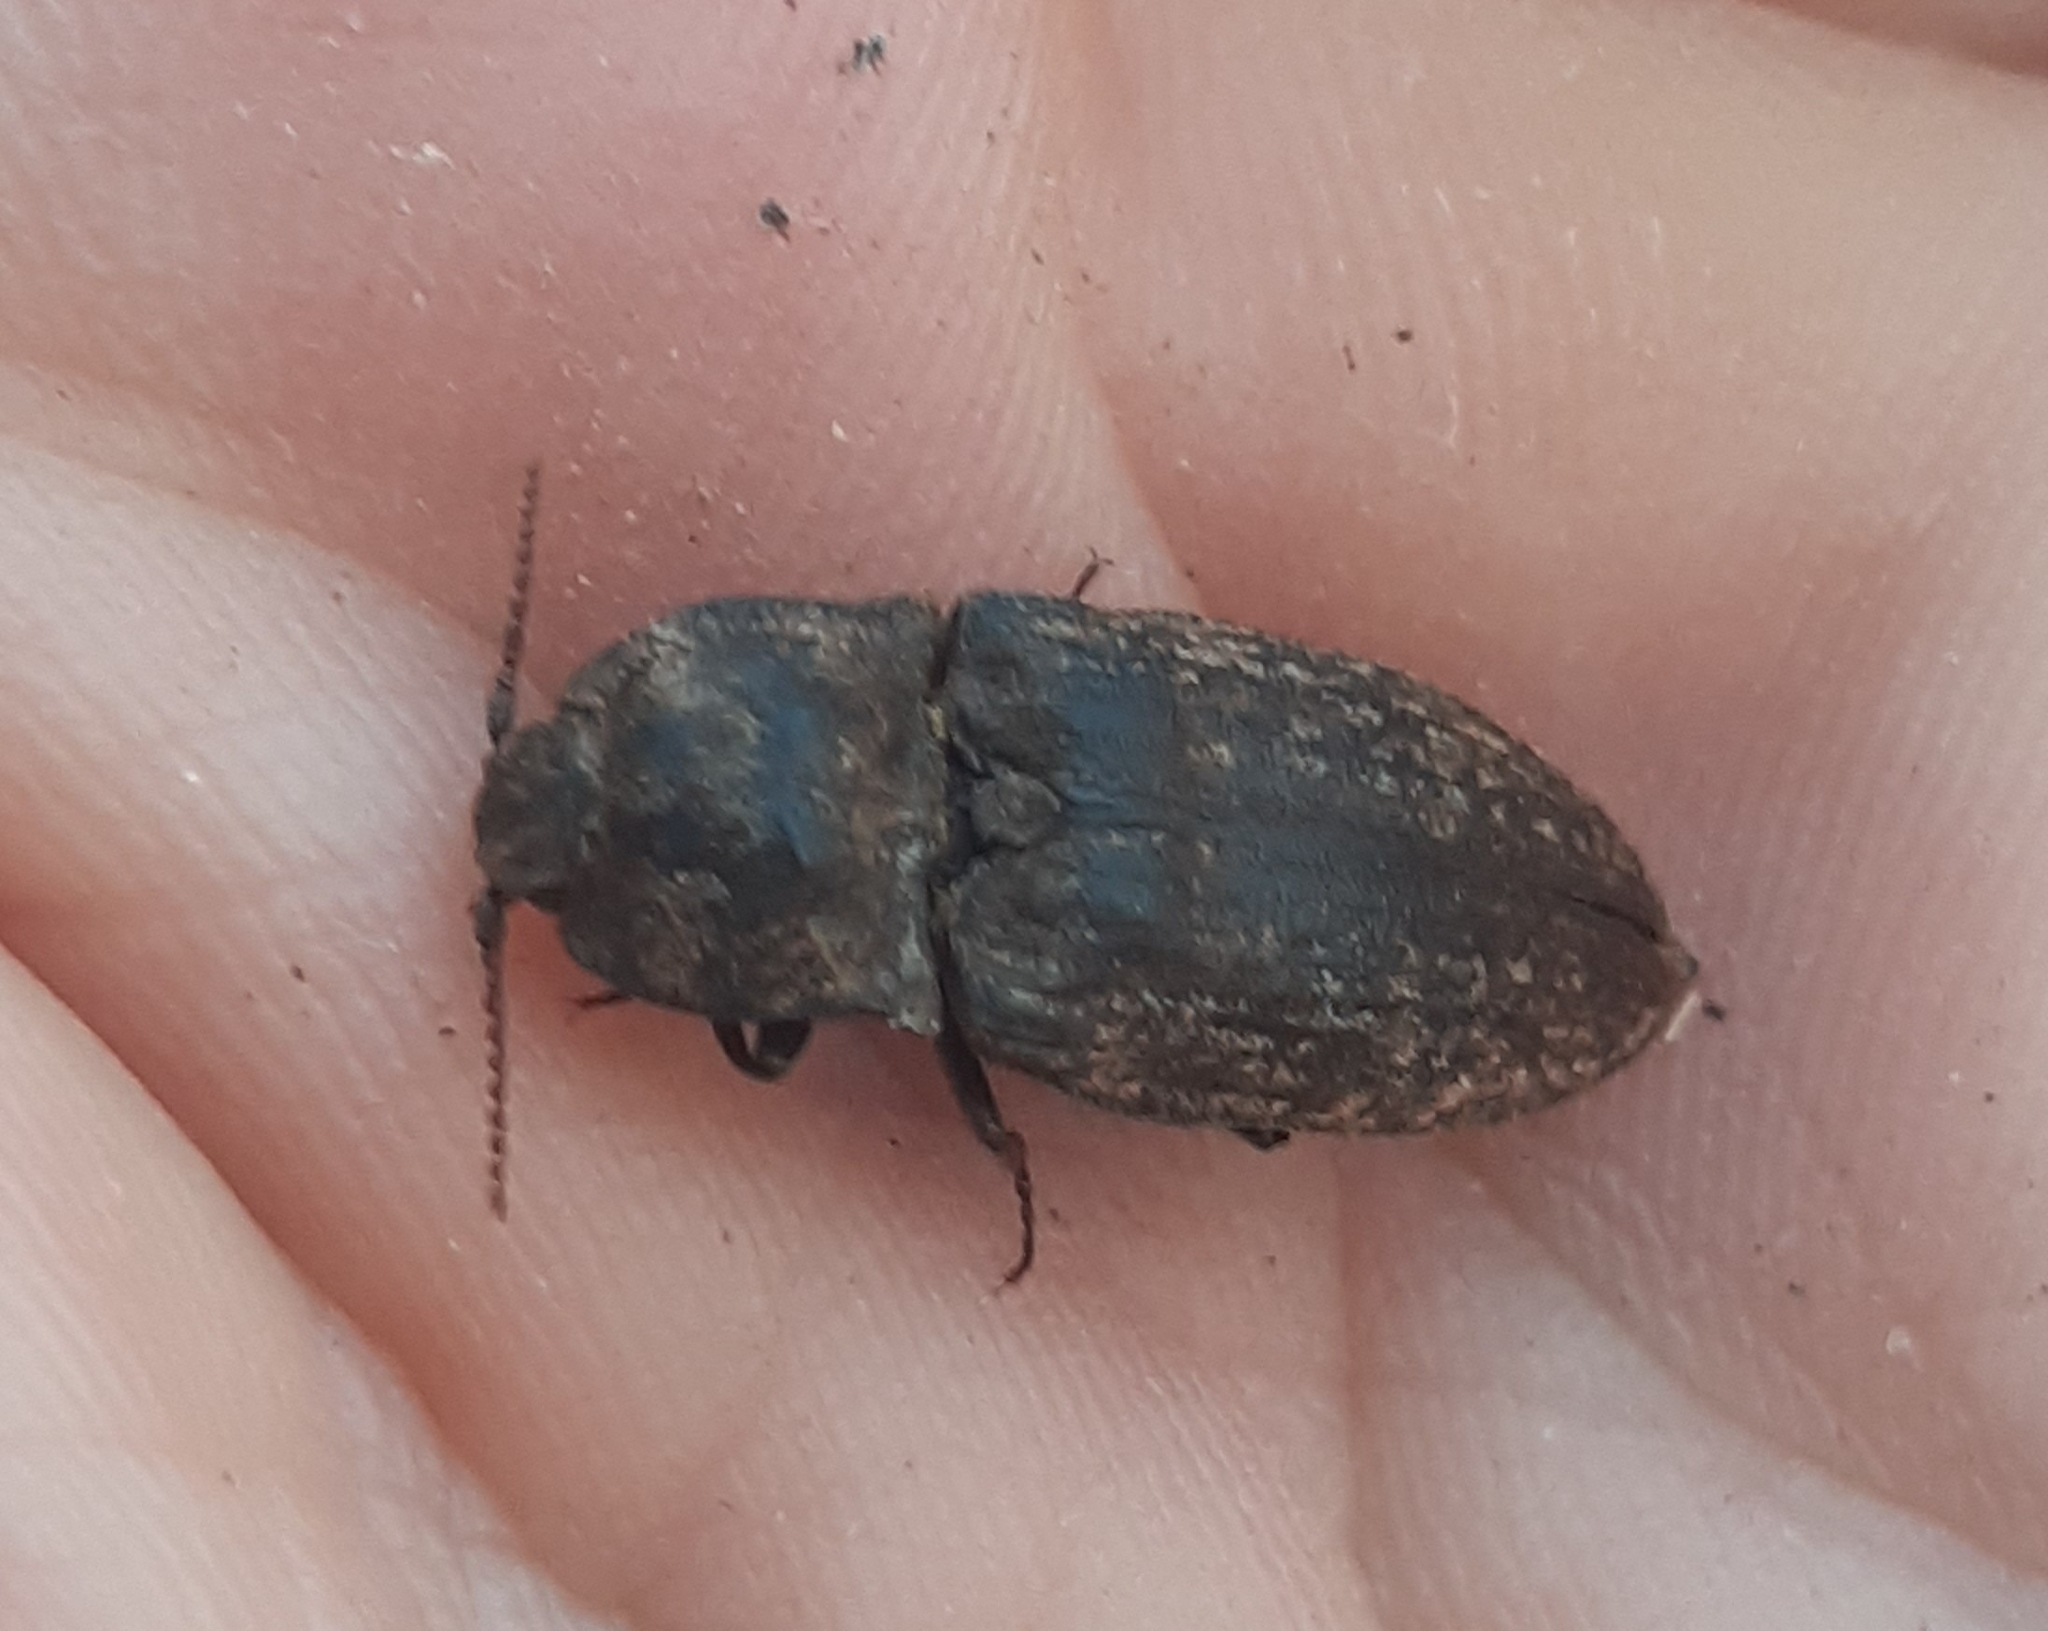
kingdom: Animalia
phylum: Arthropoda
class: Insecta
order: Coleoptera
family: Elateridae
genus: Agrypnus
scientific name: Agrypnus murinus
